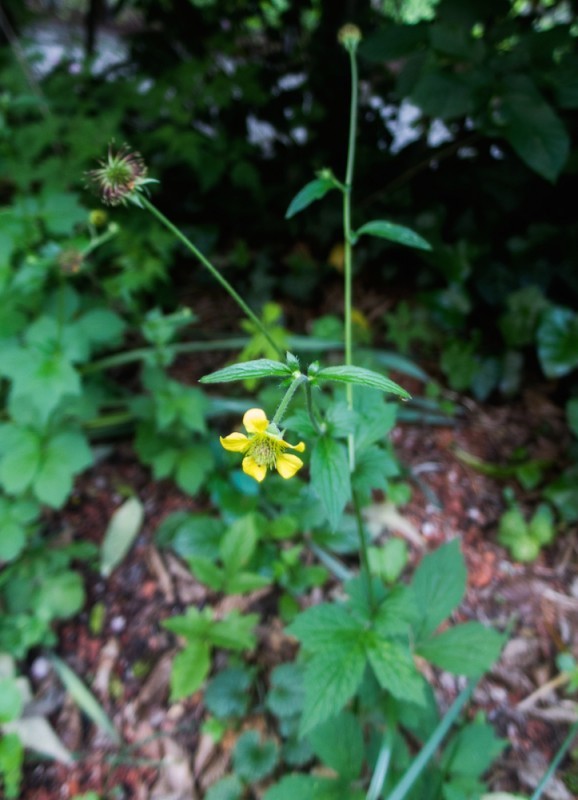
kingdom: Plantae
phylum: Tracheophyta
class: Magnoliopsida
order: Rosales
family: Rosaceae
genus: Geum
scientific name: Geum urbanum
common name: Wood avens
